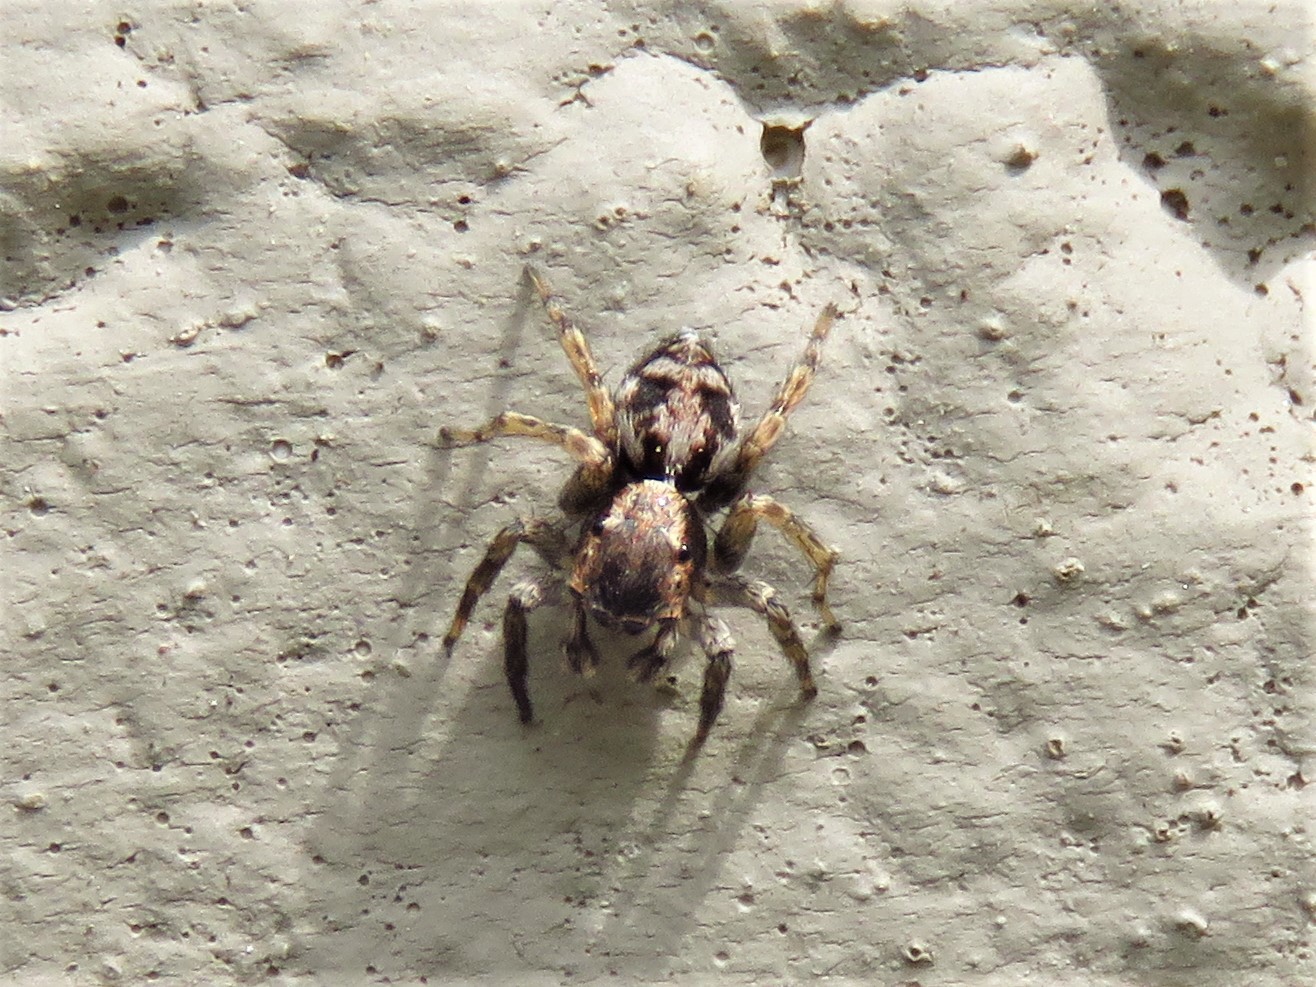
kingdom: Animalia
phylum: Arthropoda
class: Arachnida
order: Araneae
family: Salticidae
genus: Naphrys
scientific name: Naphrys pulex
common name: Flea jumping spider
